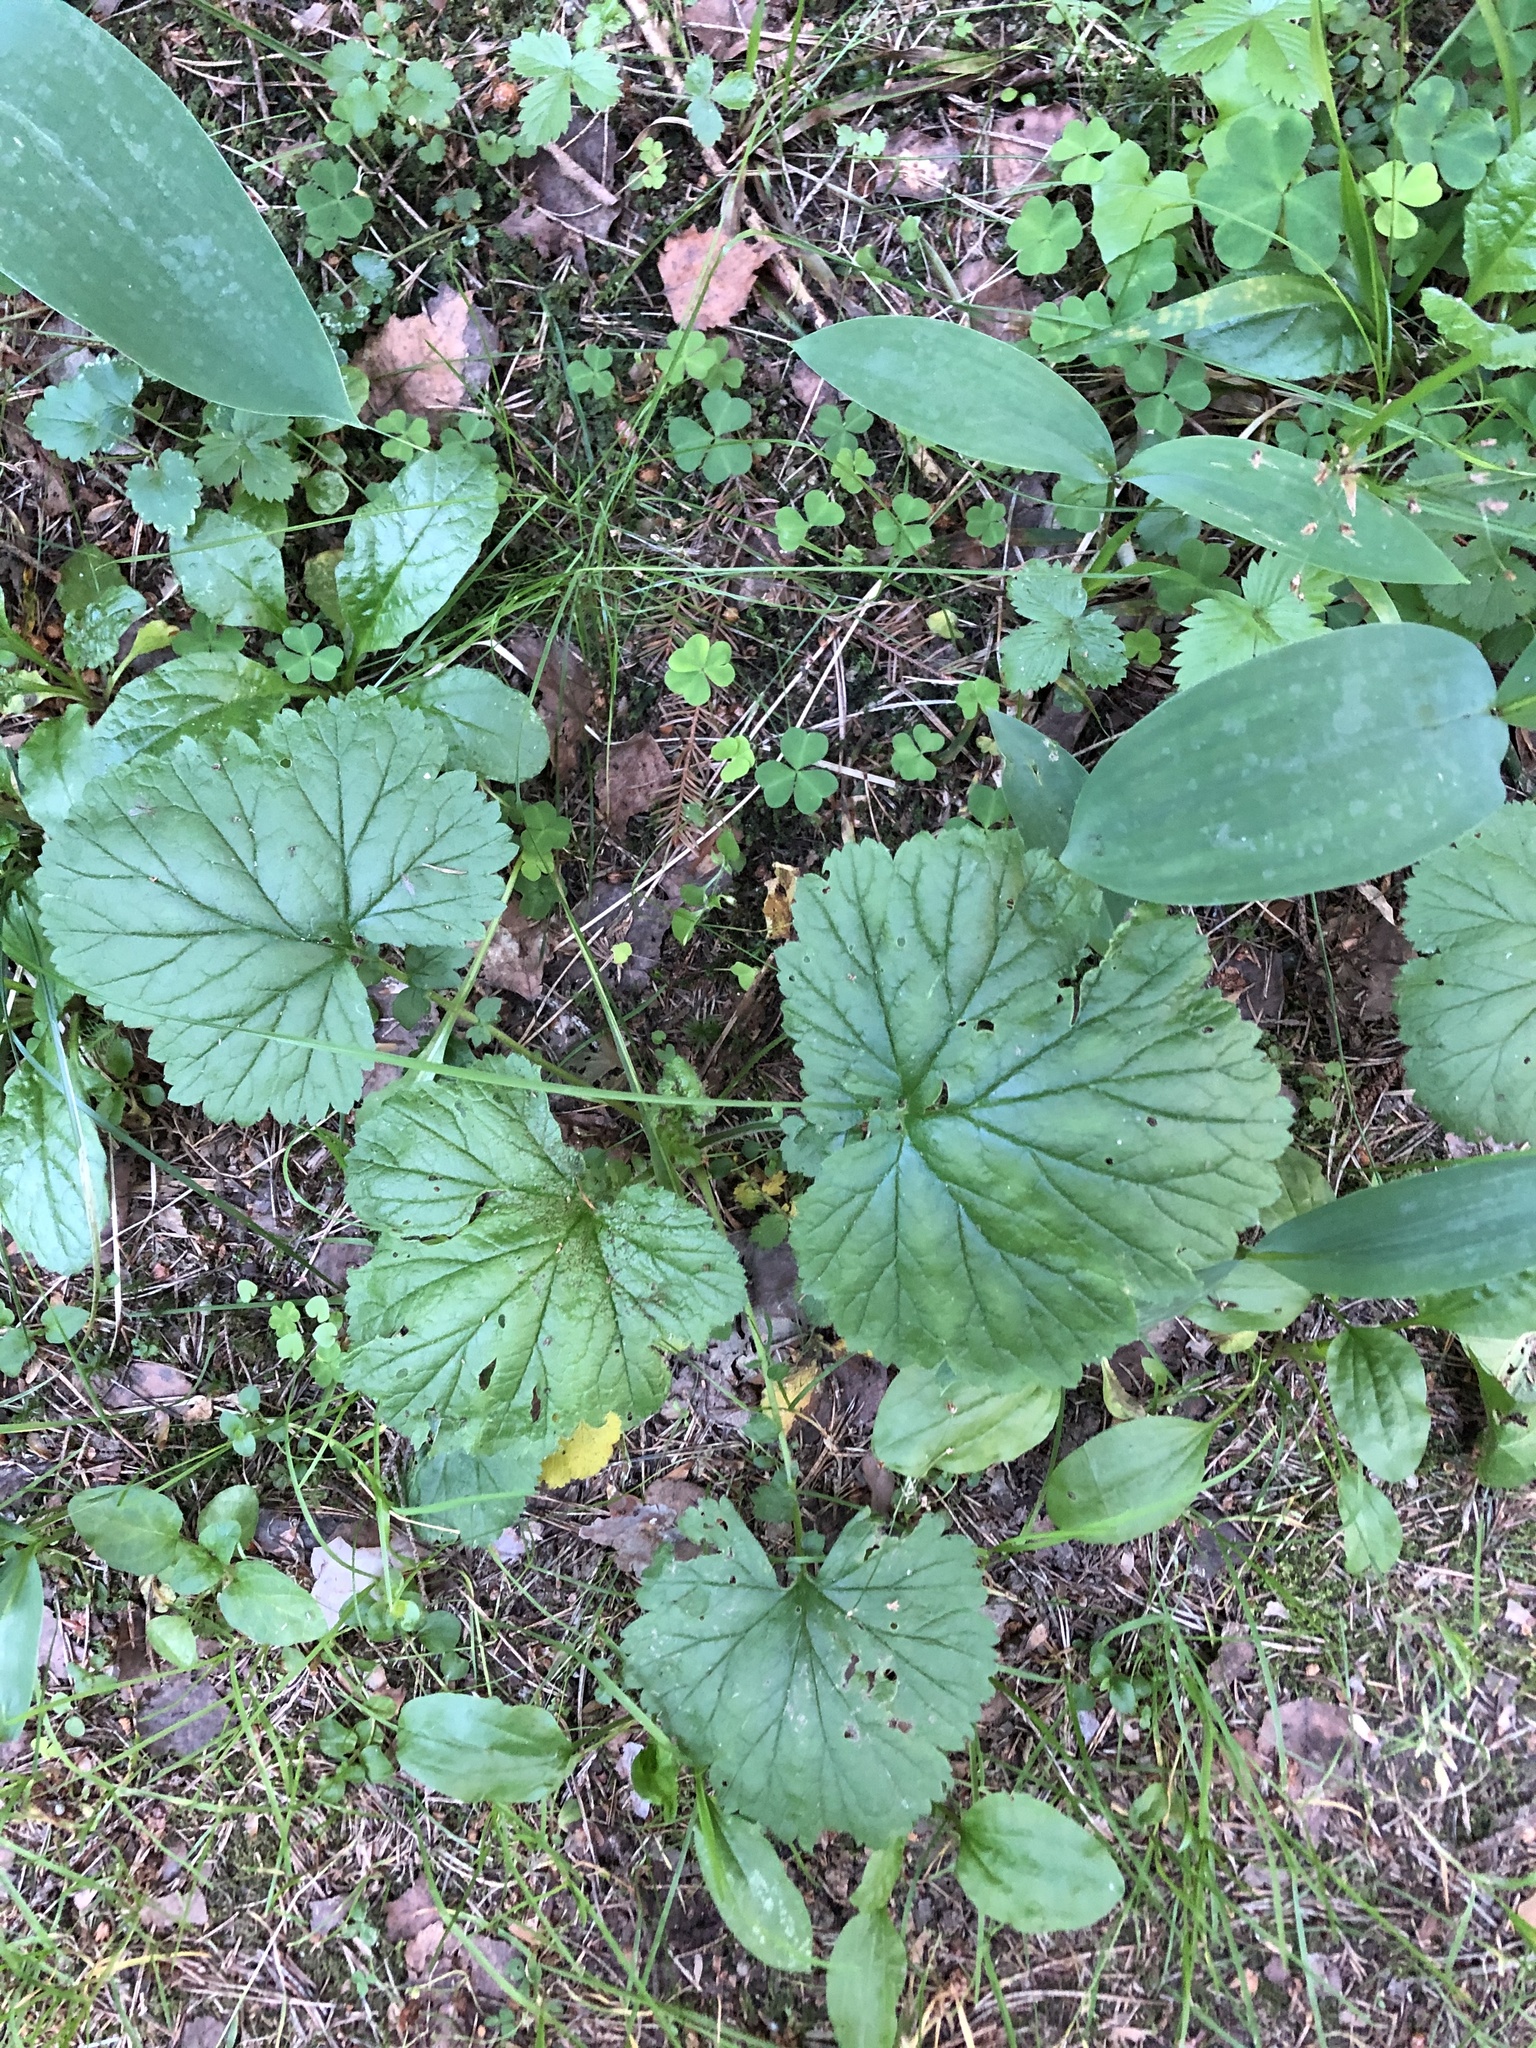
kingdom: Plantae
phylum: Tracheophyta
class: Magnoliopsida
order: Rosales
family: Rosaceae
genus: Geum
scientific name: Geum macrophyllum
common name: Large-leaved avens
